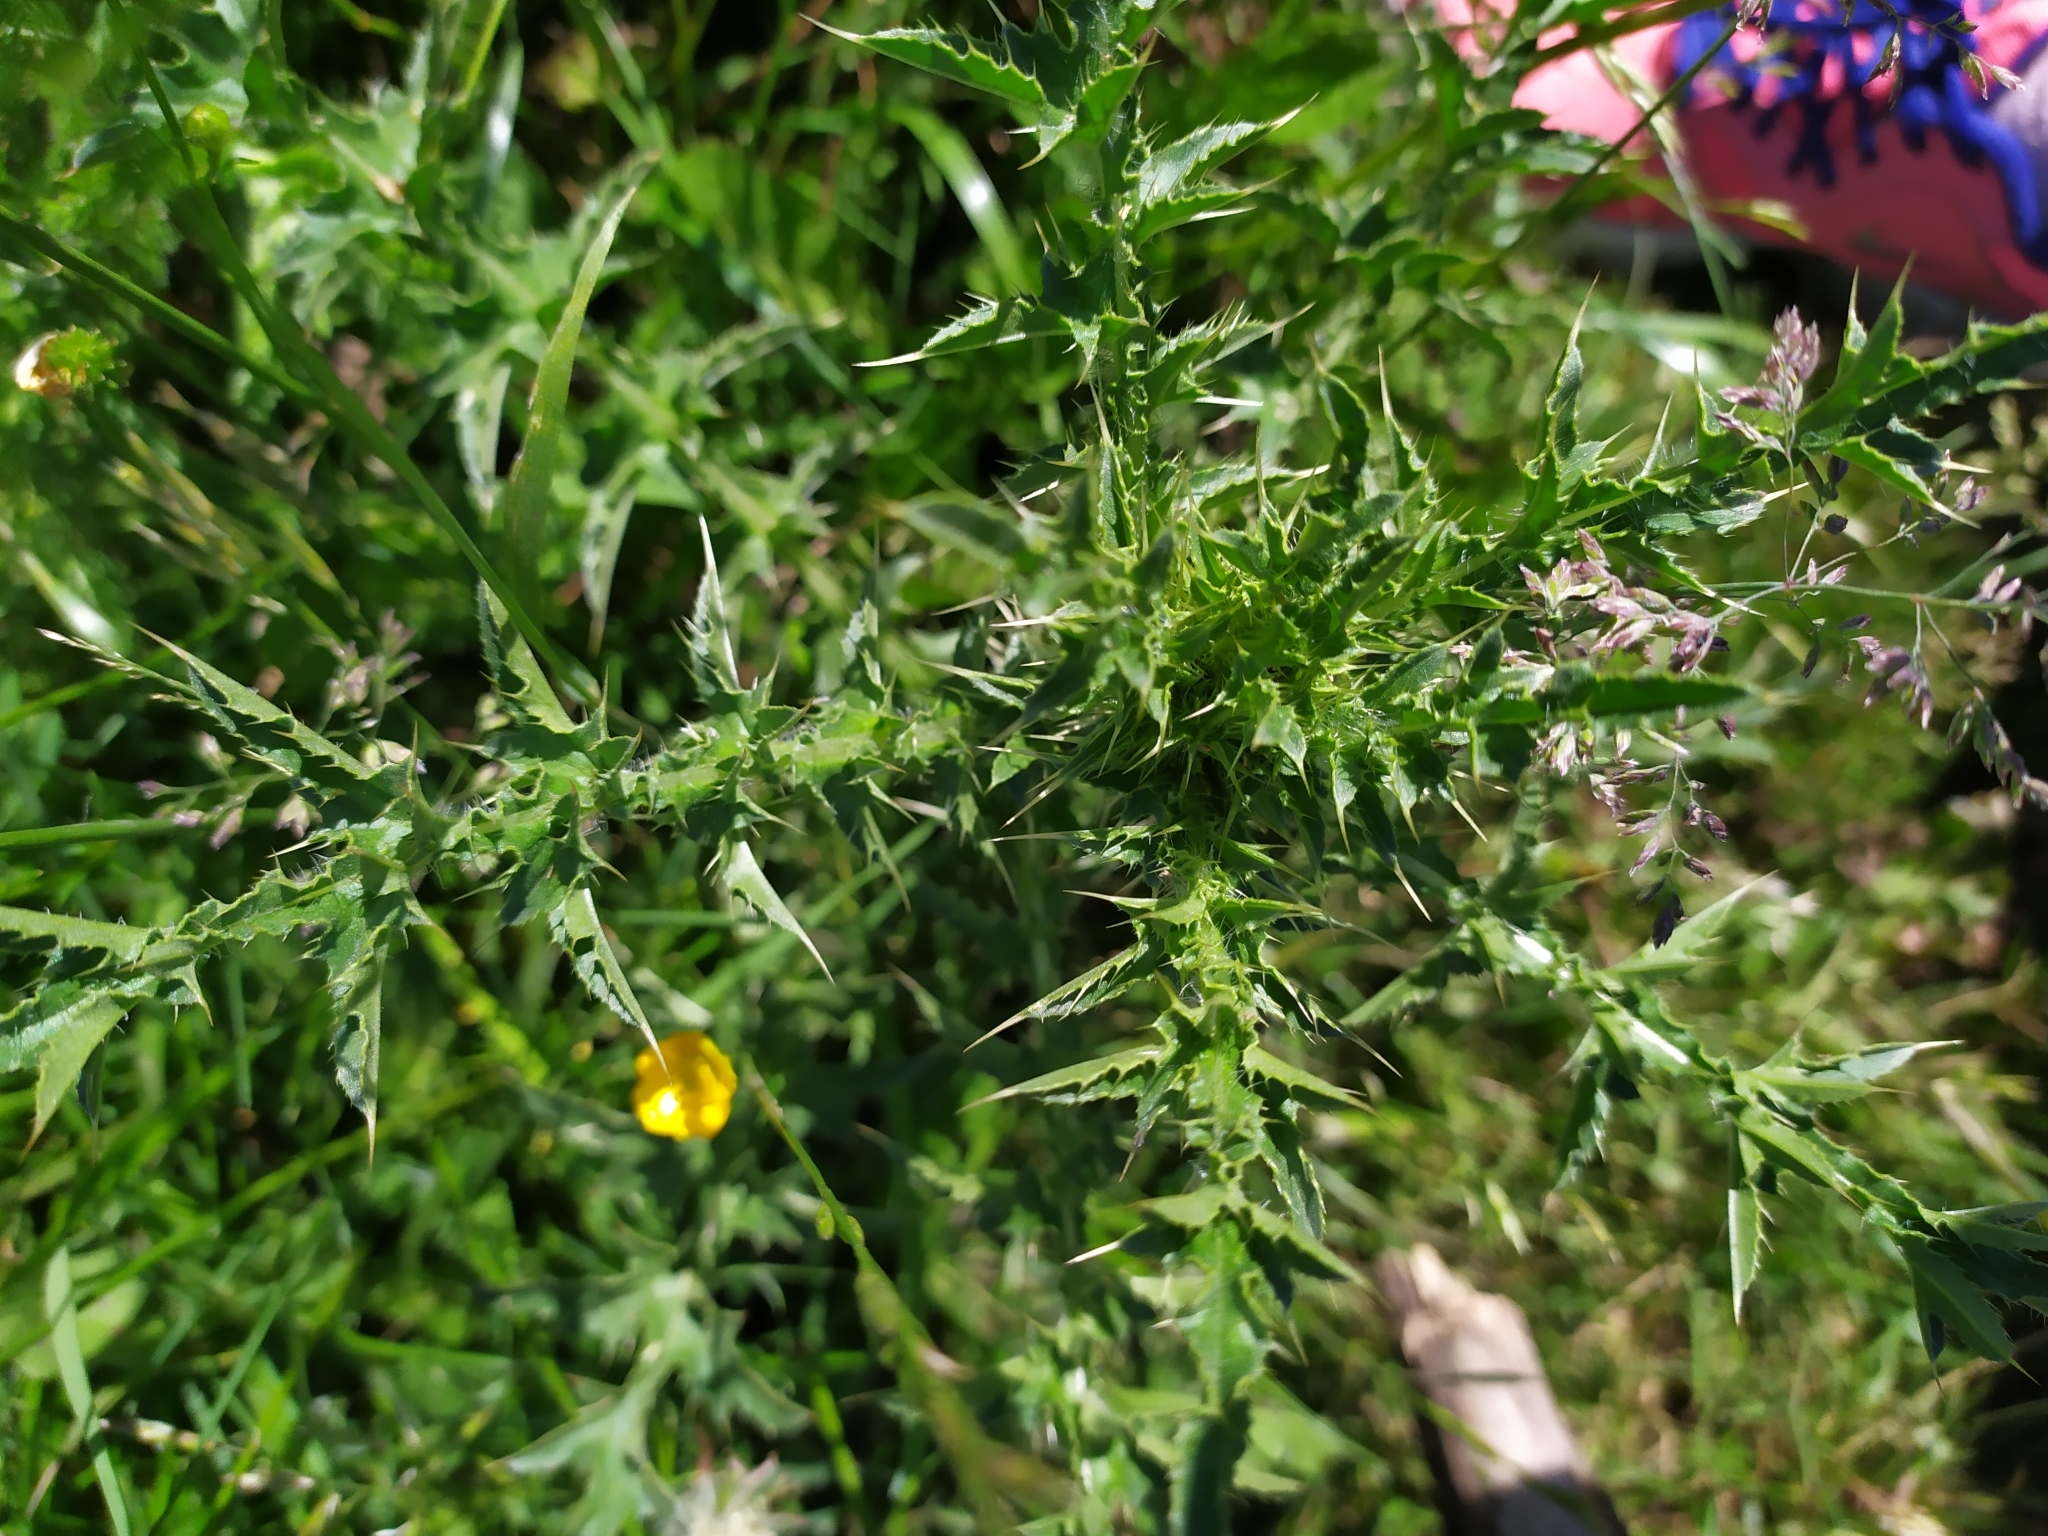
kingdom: Plantae
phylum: Tracheophyta
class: Magnoliopsida
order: Asterales
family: Asteraceae
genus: Carduus
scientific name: Carduus acanthoides
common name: Plumeless thistle
